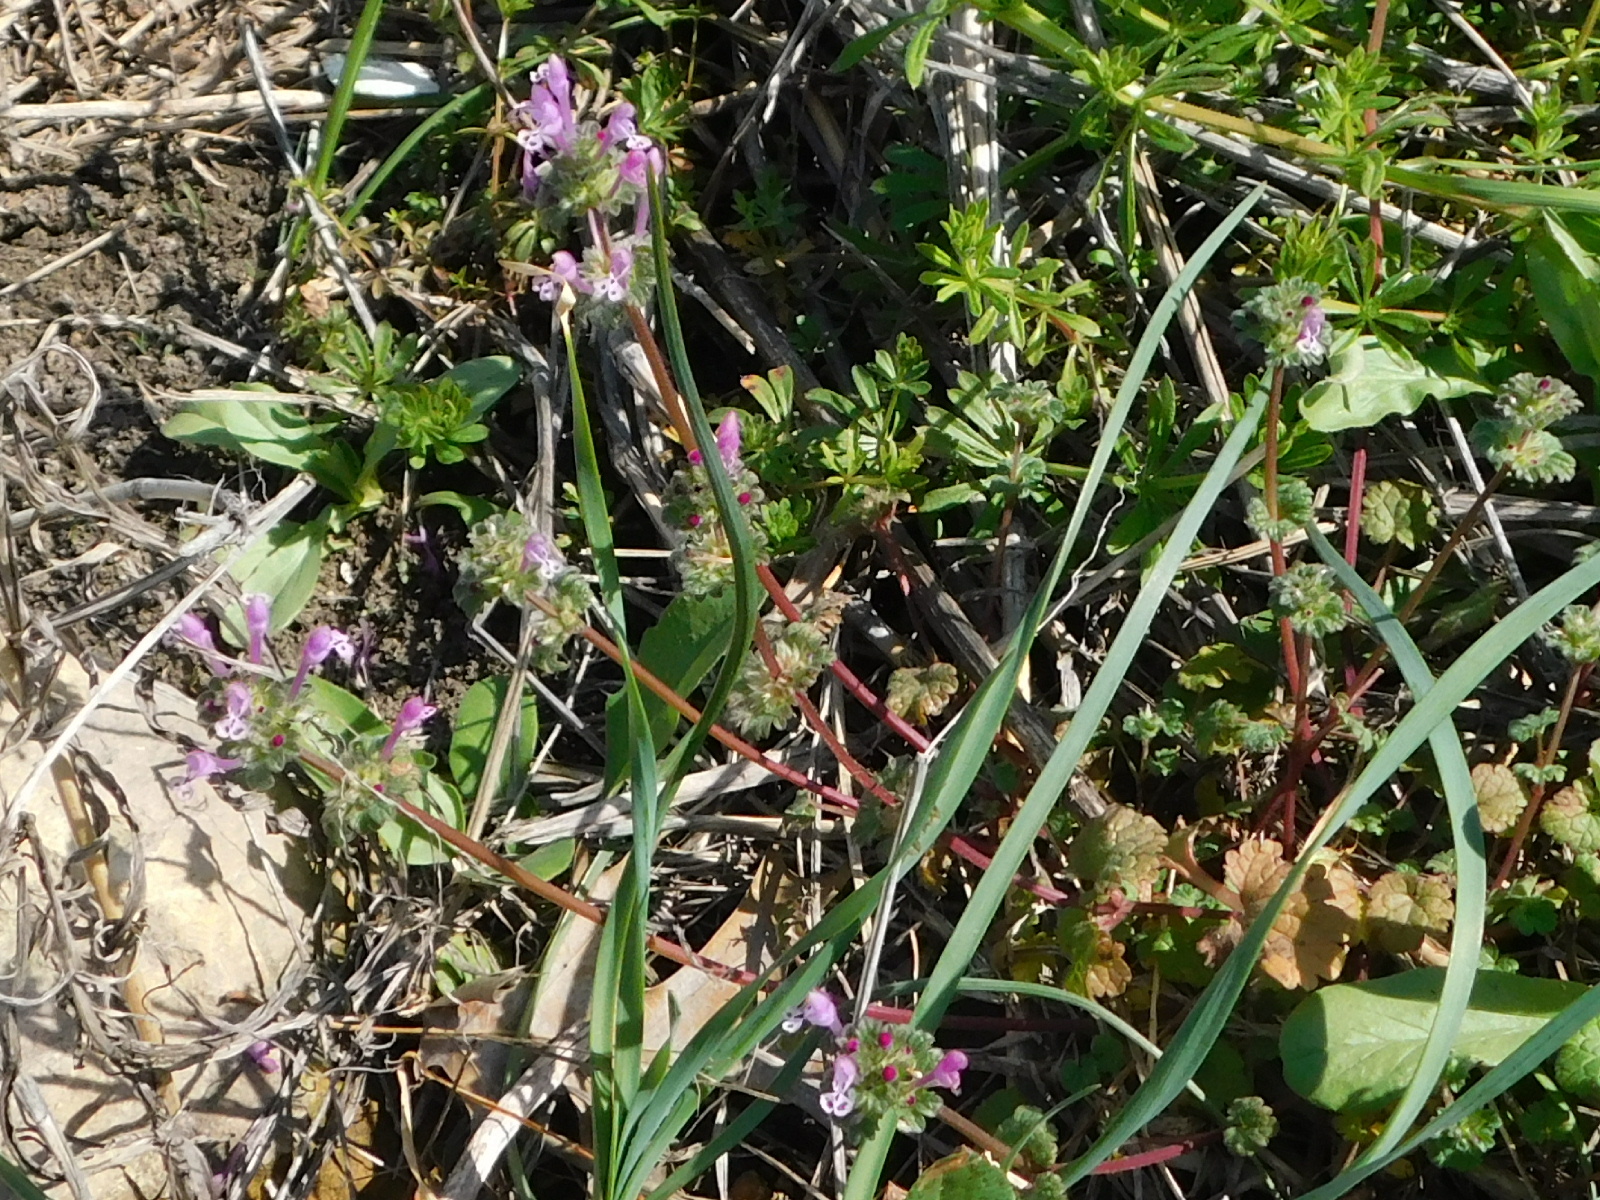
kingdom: Plantae
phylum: Tracheophyta
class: Magnoliopsida
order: Lamiales
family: Lamiaceae
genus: Lamium
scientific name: Lamium amplexicaule
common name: Henbit dead-nettle
